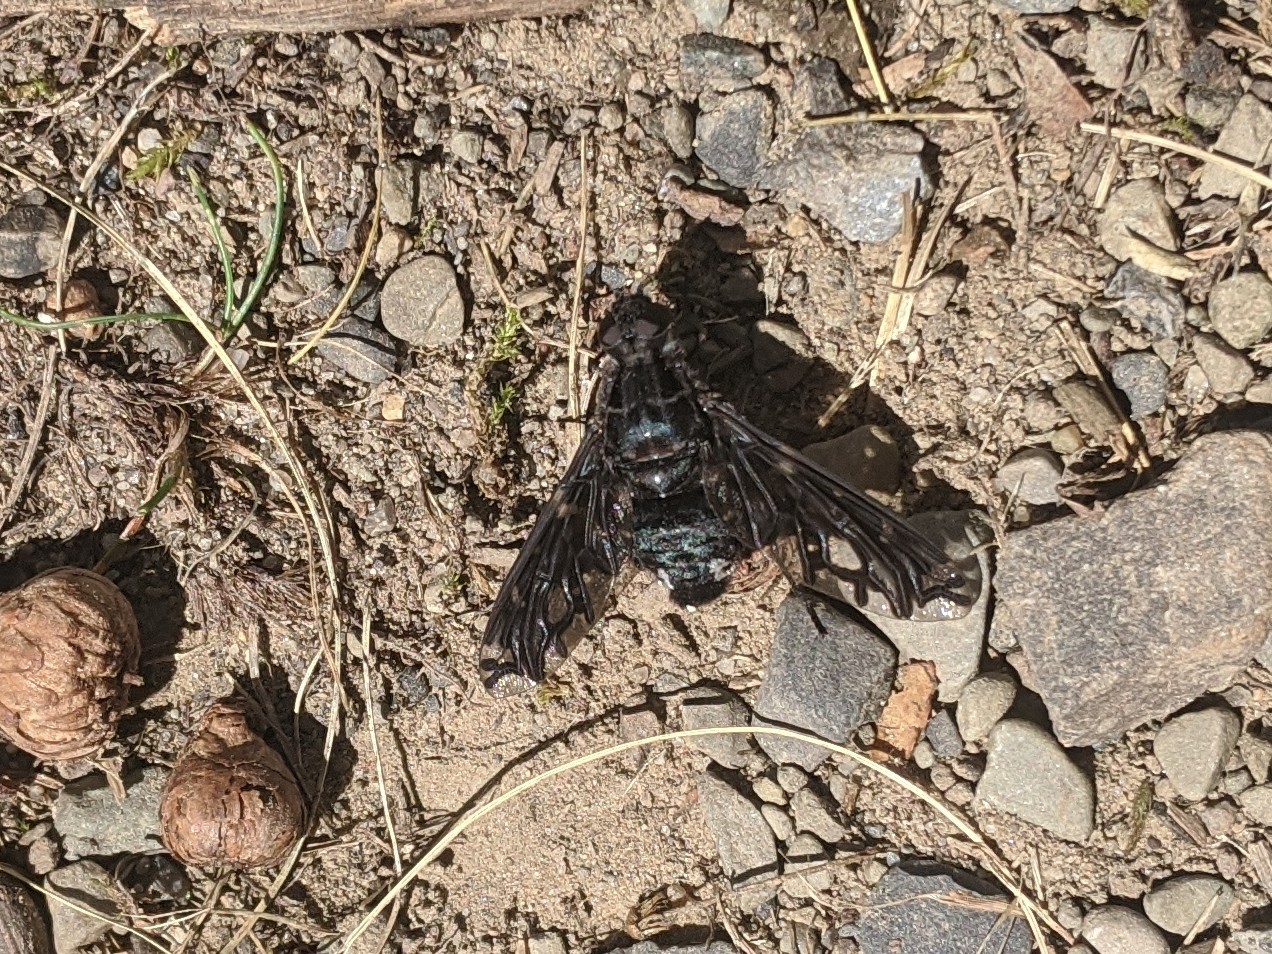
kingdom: Animalia
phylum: Arthropoda
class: Insecta
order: Diptera
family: Bombyliidae
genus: Xenox
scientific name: Xenox tigrinus
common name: Tiger bee fly
